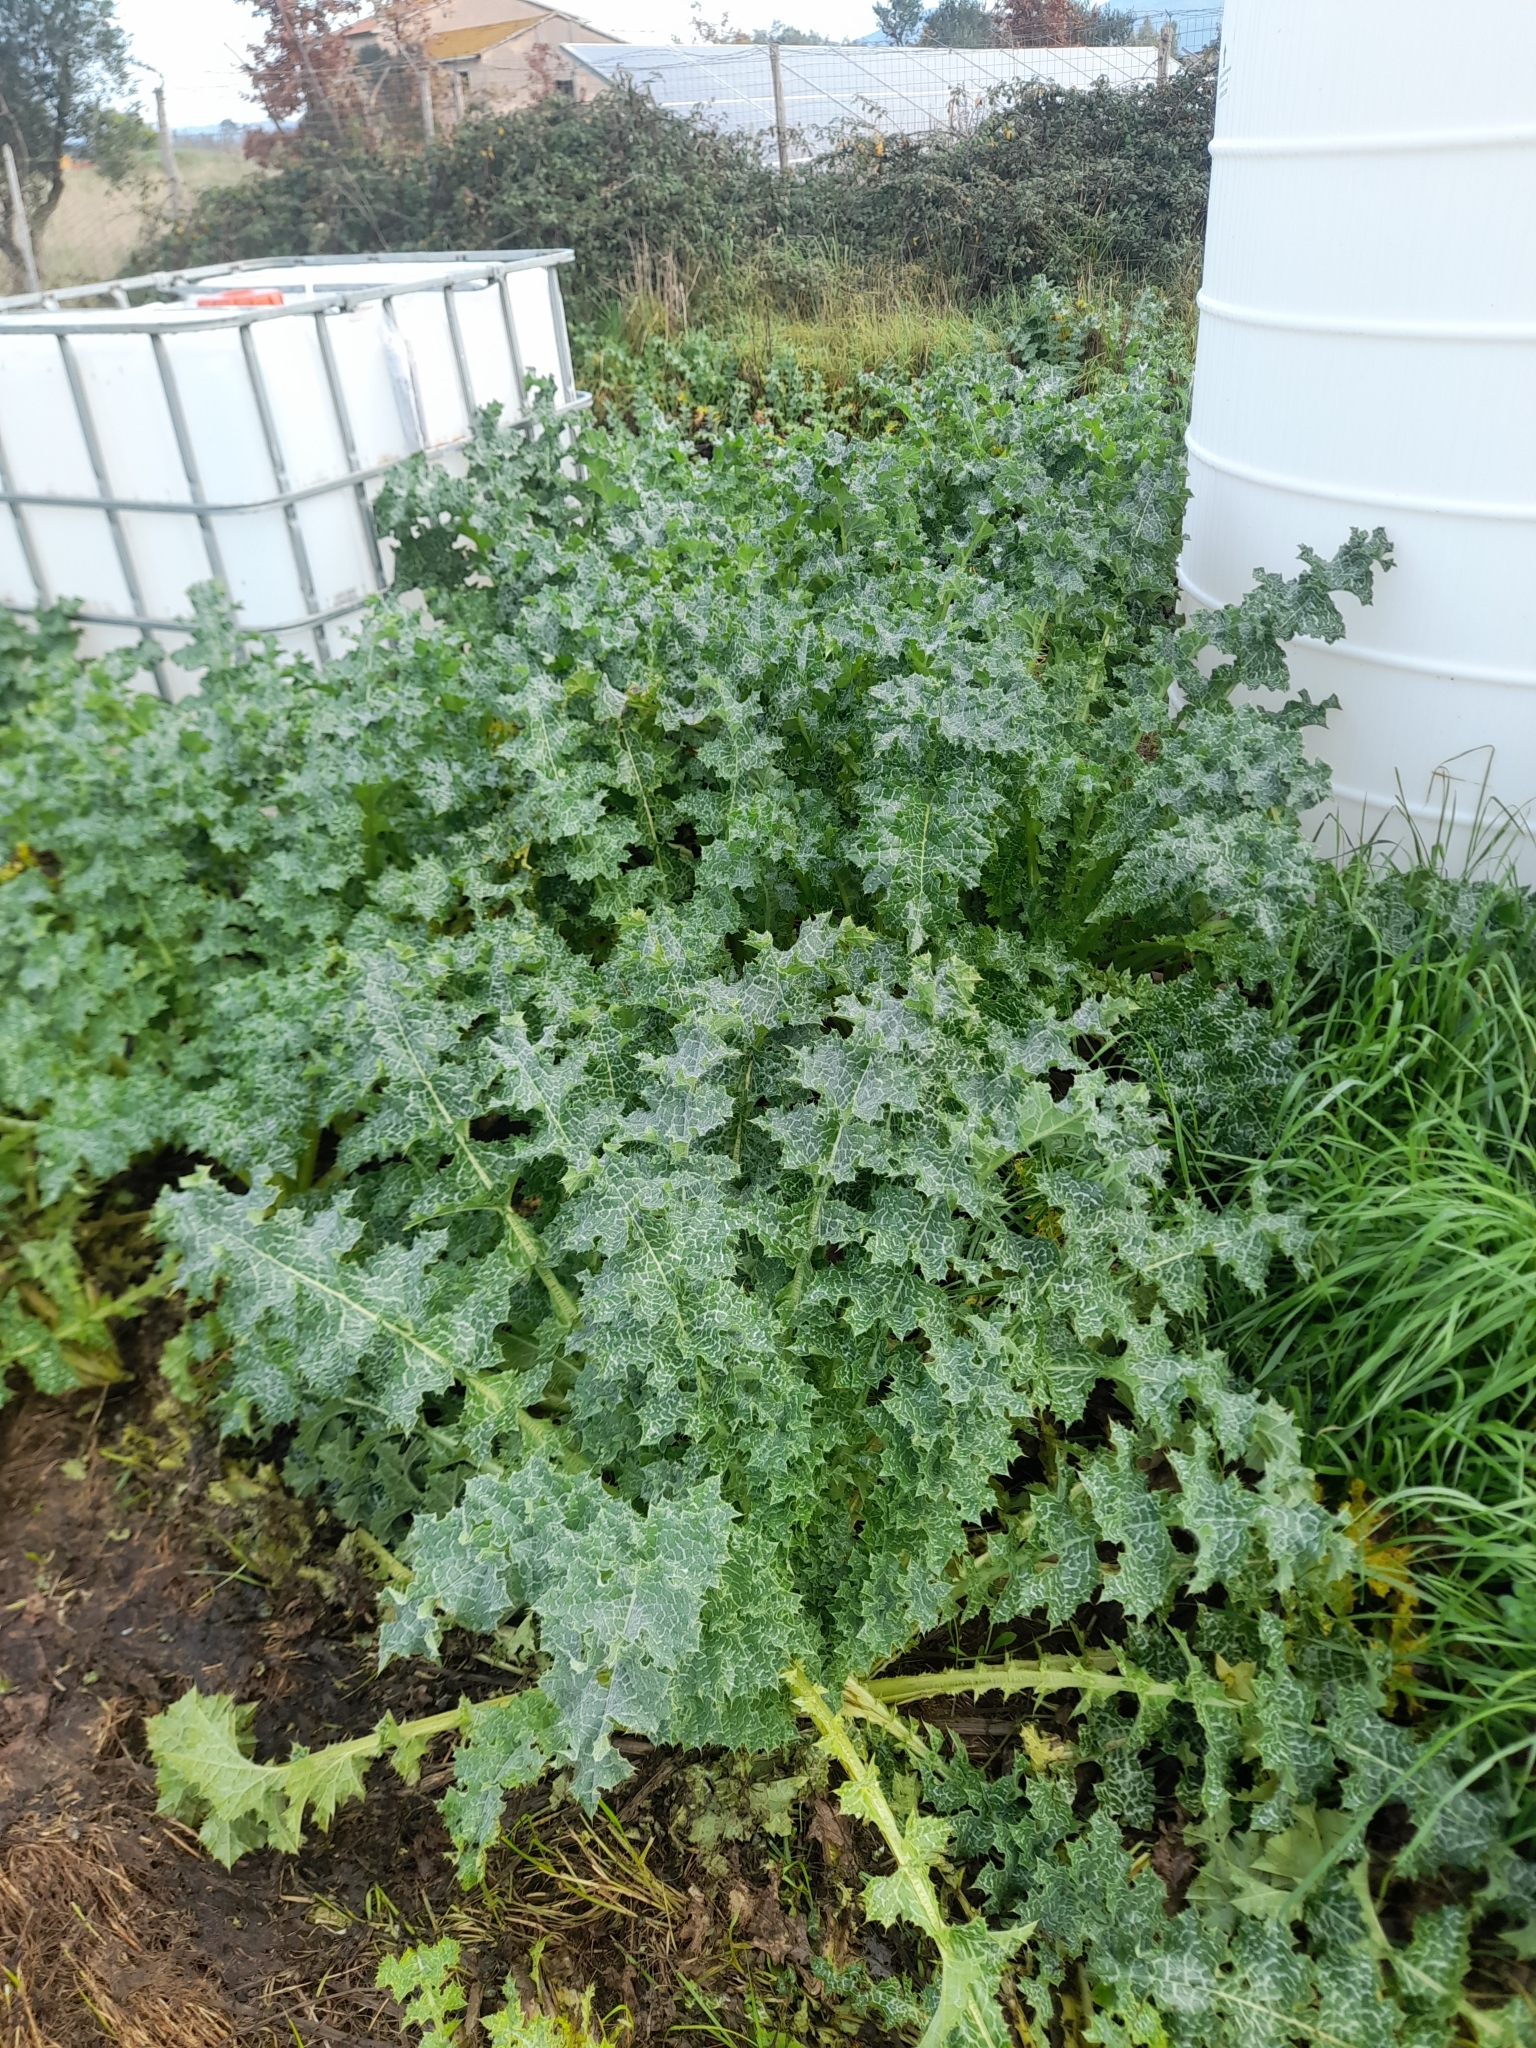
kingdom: Plantae
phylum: Tracheophyta
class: Magnoliopsida
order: Asterales
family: Asteraceae
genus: Silybum
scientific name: Silybum marianum
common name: Milk thistle
